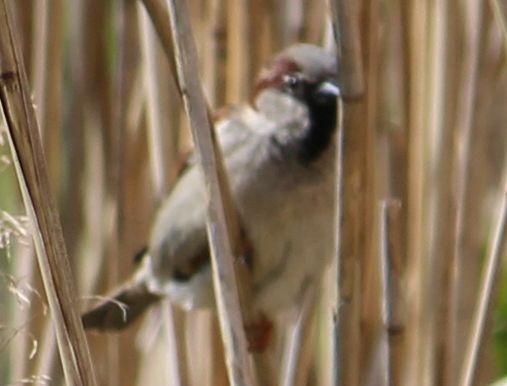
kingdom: Animalia
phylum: Chordata
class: Aves
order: Passeriformes
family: Passeridae
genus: Passer
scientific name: Passer domesticus
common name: House sparrow
